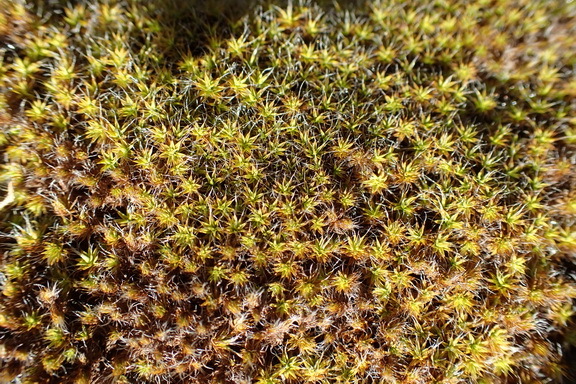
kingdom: Plantae
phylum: Bryophyta
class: Bryopsida
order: Pottiales
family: Pottiaceae
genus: Pseudocrossidium
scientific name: Pseudocrossidium crinitum
